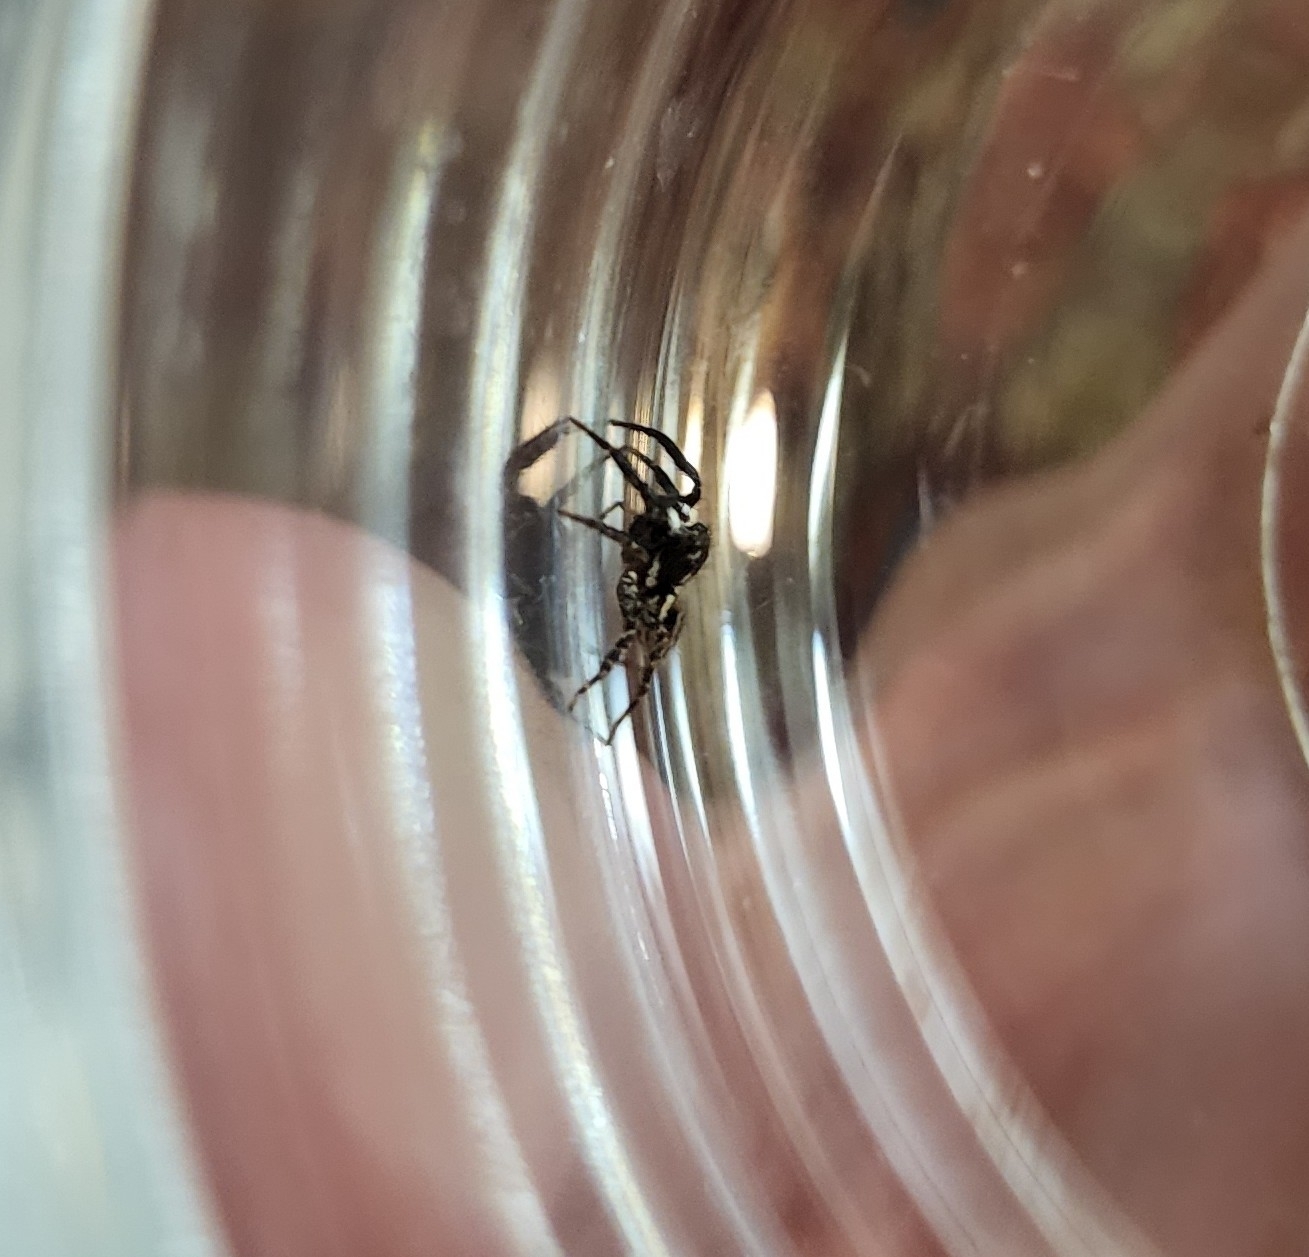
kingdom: Animalia
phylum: Arthropoda
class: Arachnida
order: Araneae
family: Salticidae
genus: Anasaitis
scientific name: Anasaitis canosa
